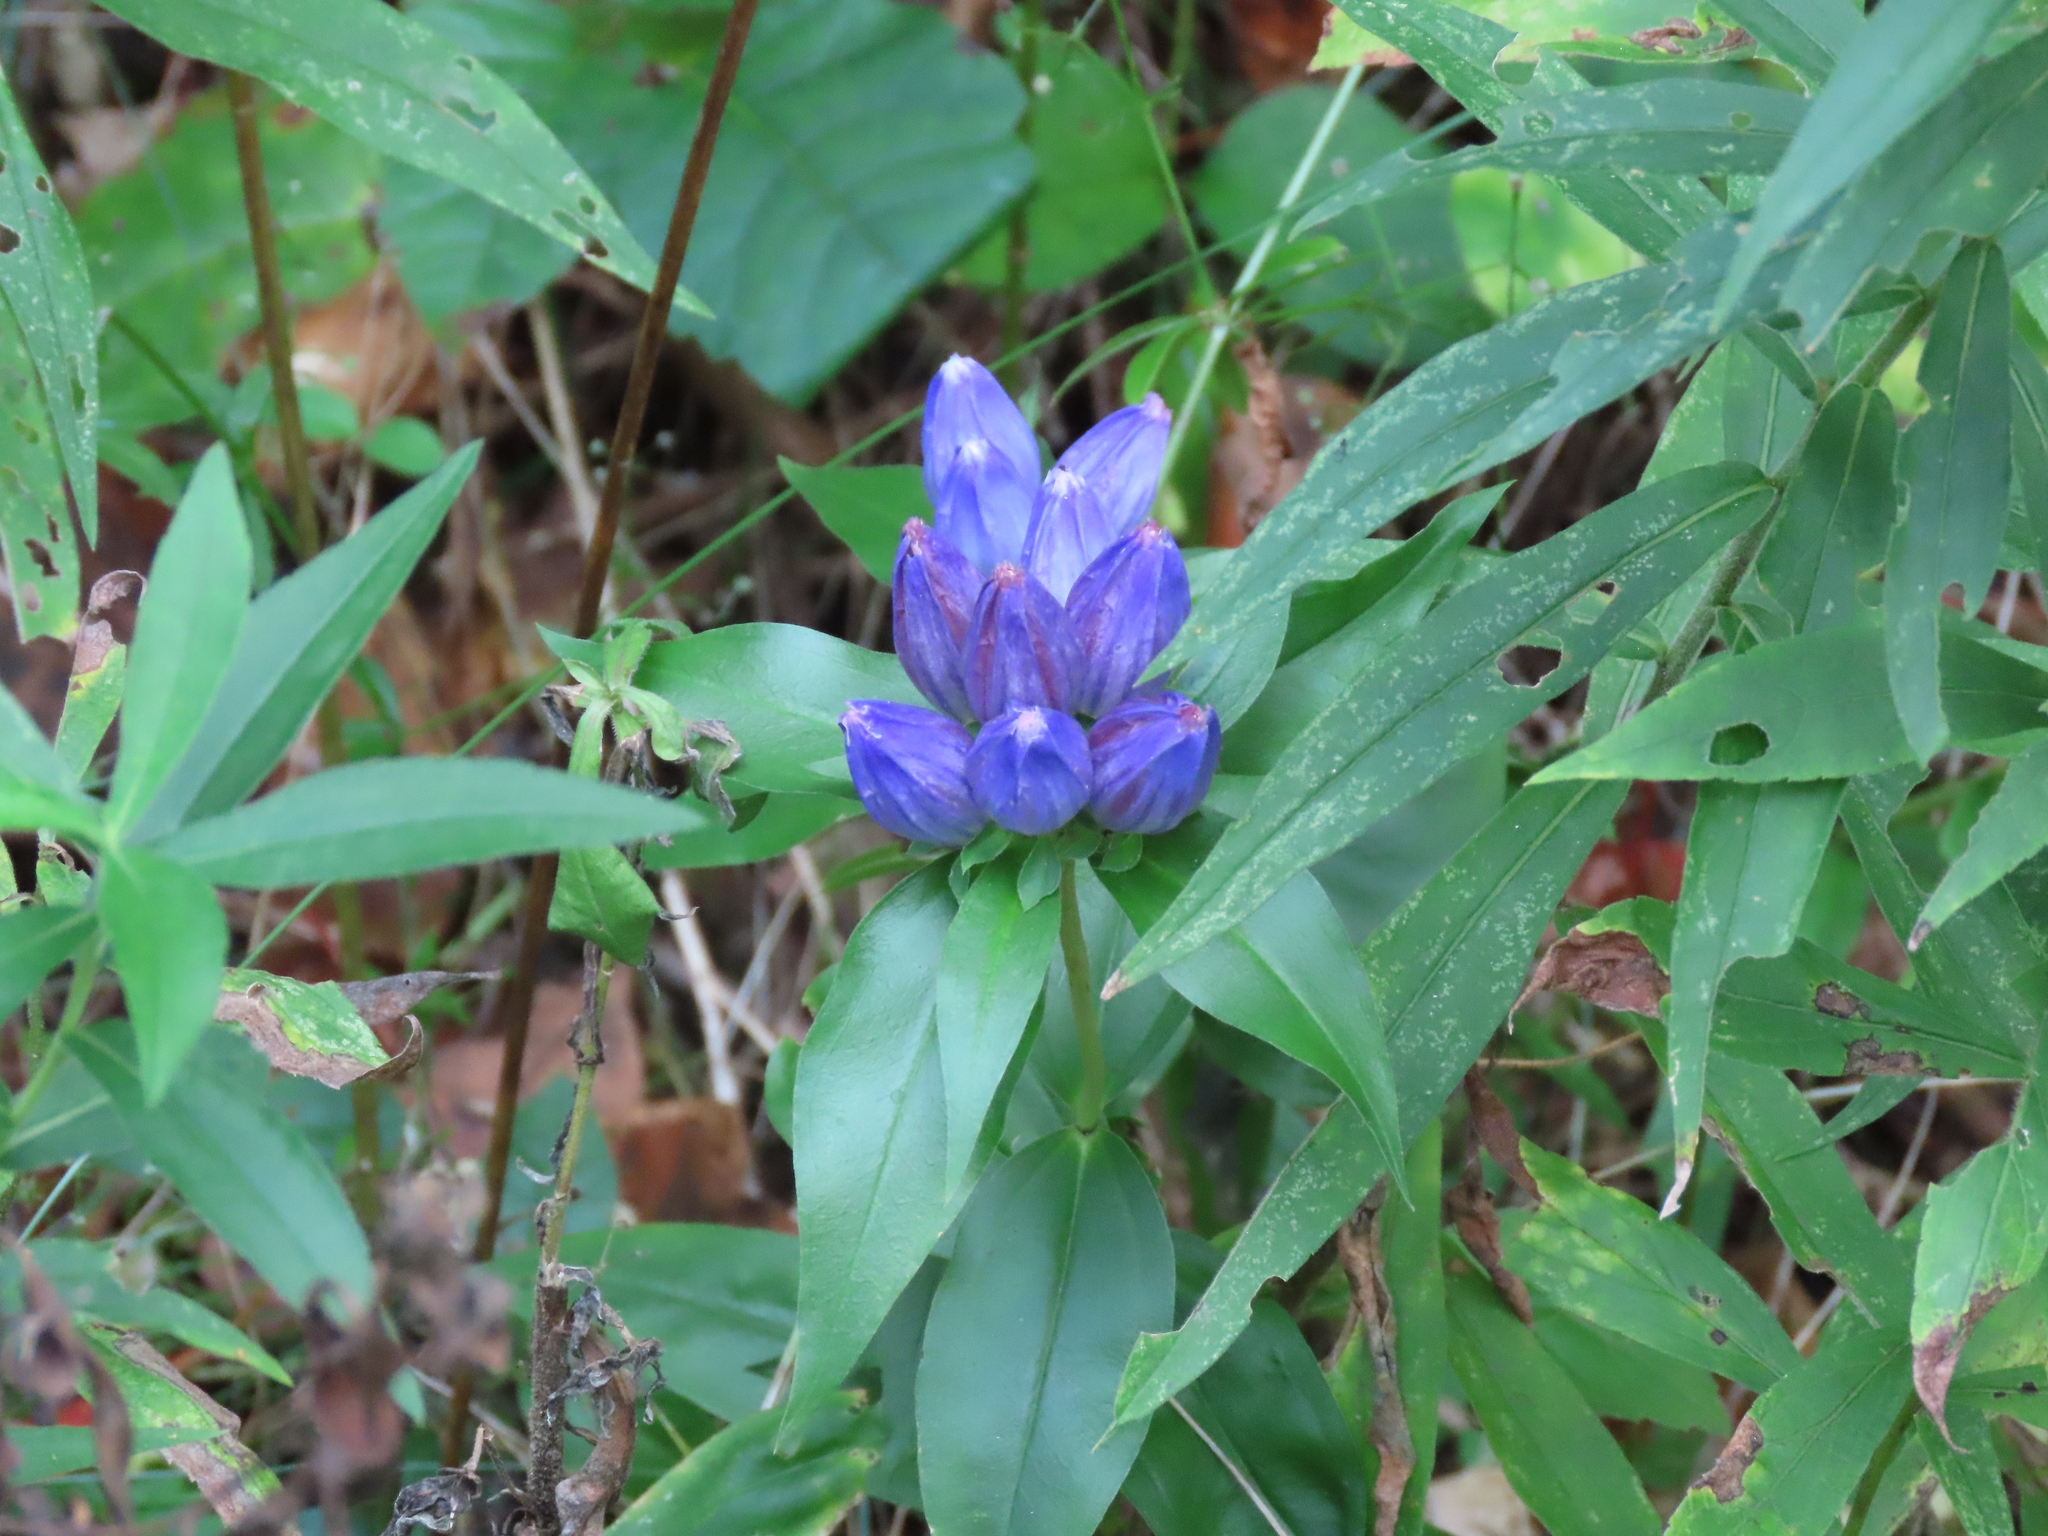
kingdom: Plantae
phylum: Tracheophyta
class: Magnoliopsida
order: Gentianales
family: Gentianaceae
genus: Gentiana
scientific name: Gentiana andrewsii
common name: Bottle gentian
